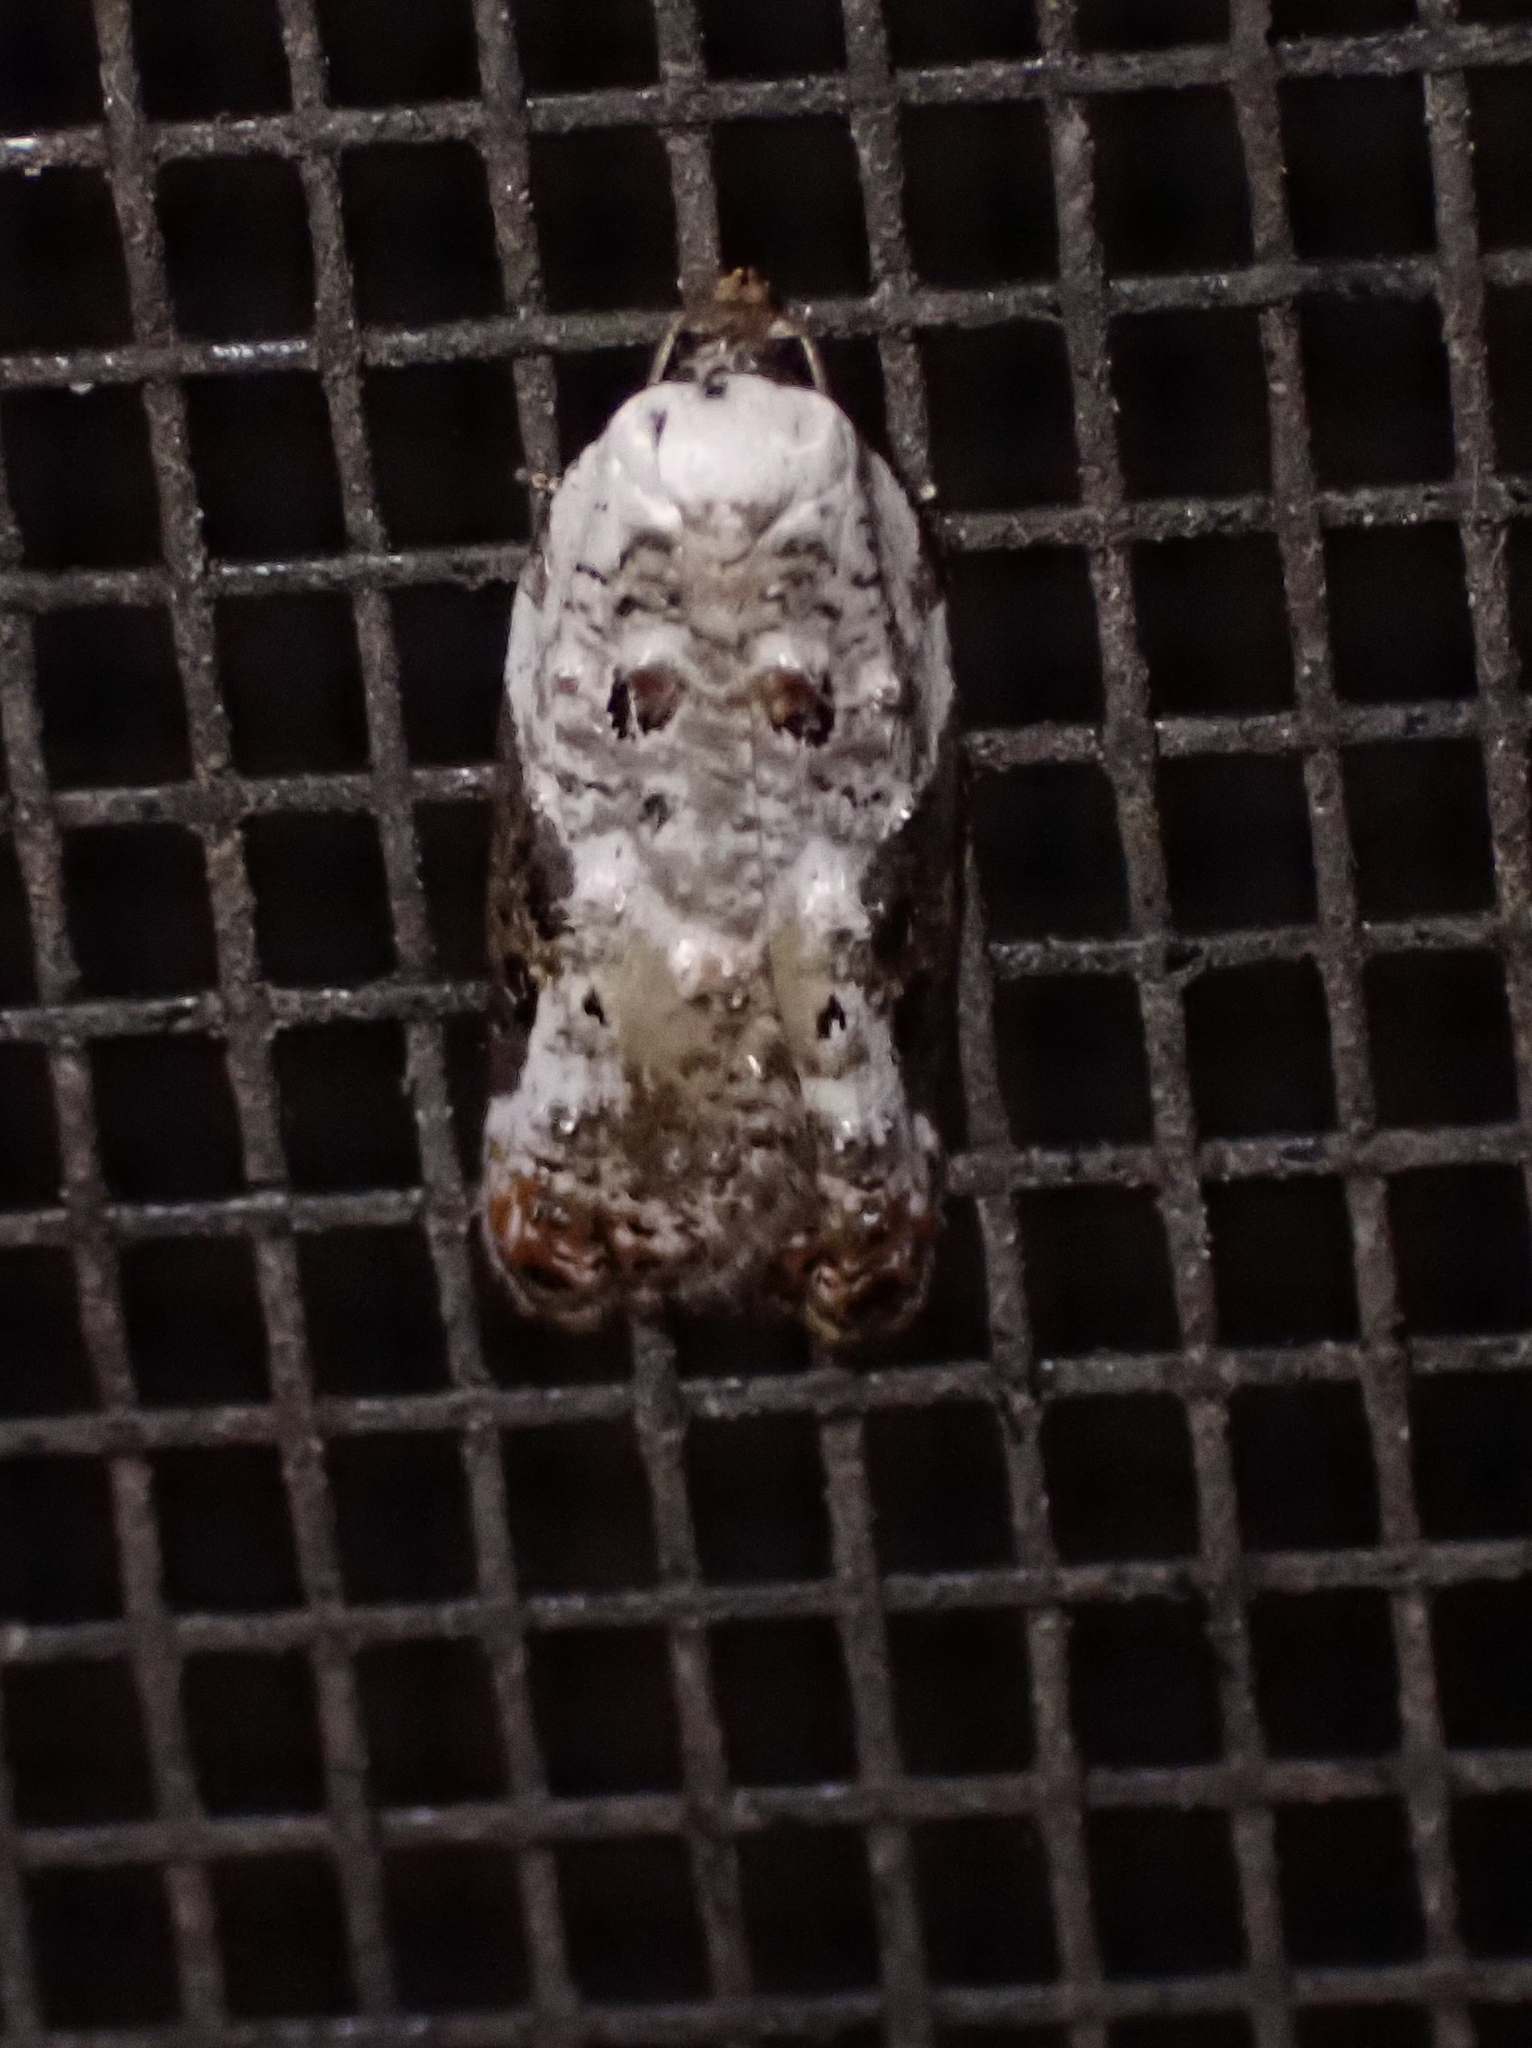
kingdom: Animalia
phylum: Arthropoda
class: Insecta
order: Lepidoptera
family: Tortricidae
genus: Acleris
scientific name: Acleris nivisellana
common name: Snowy-shouldered acleris moth
